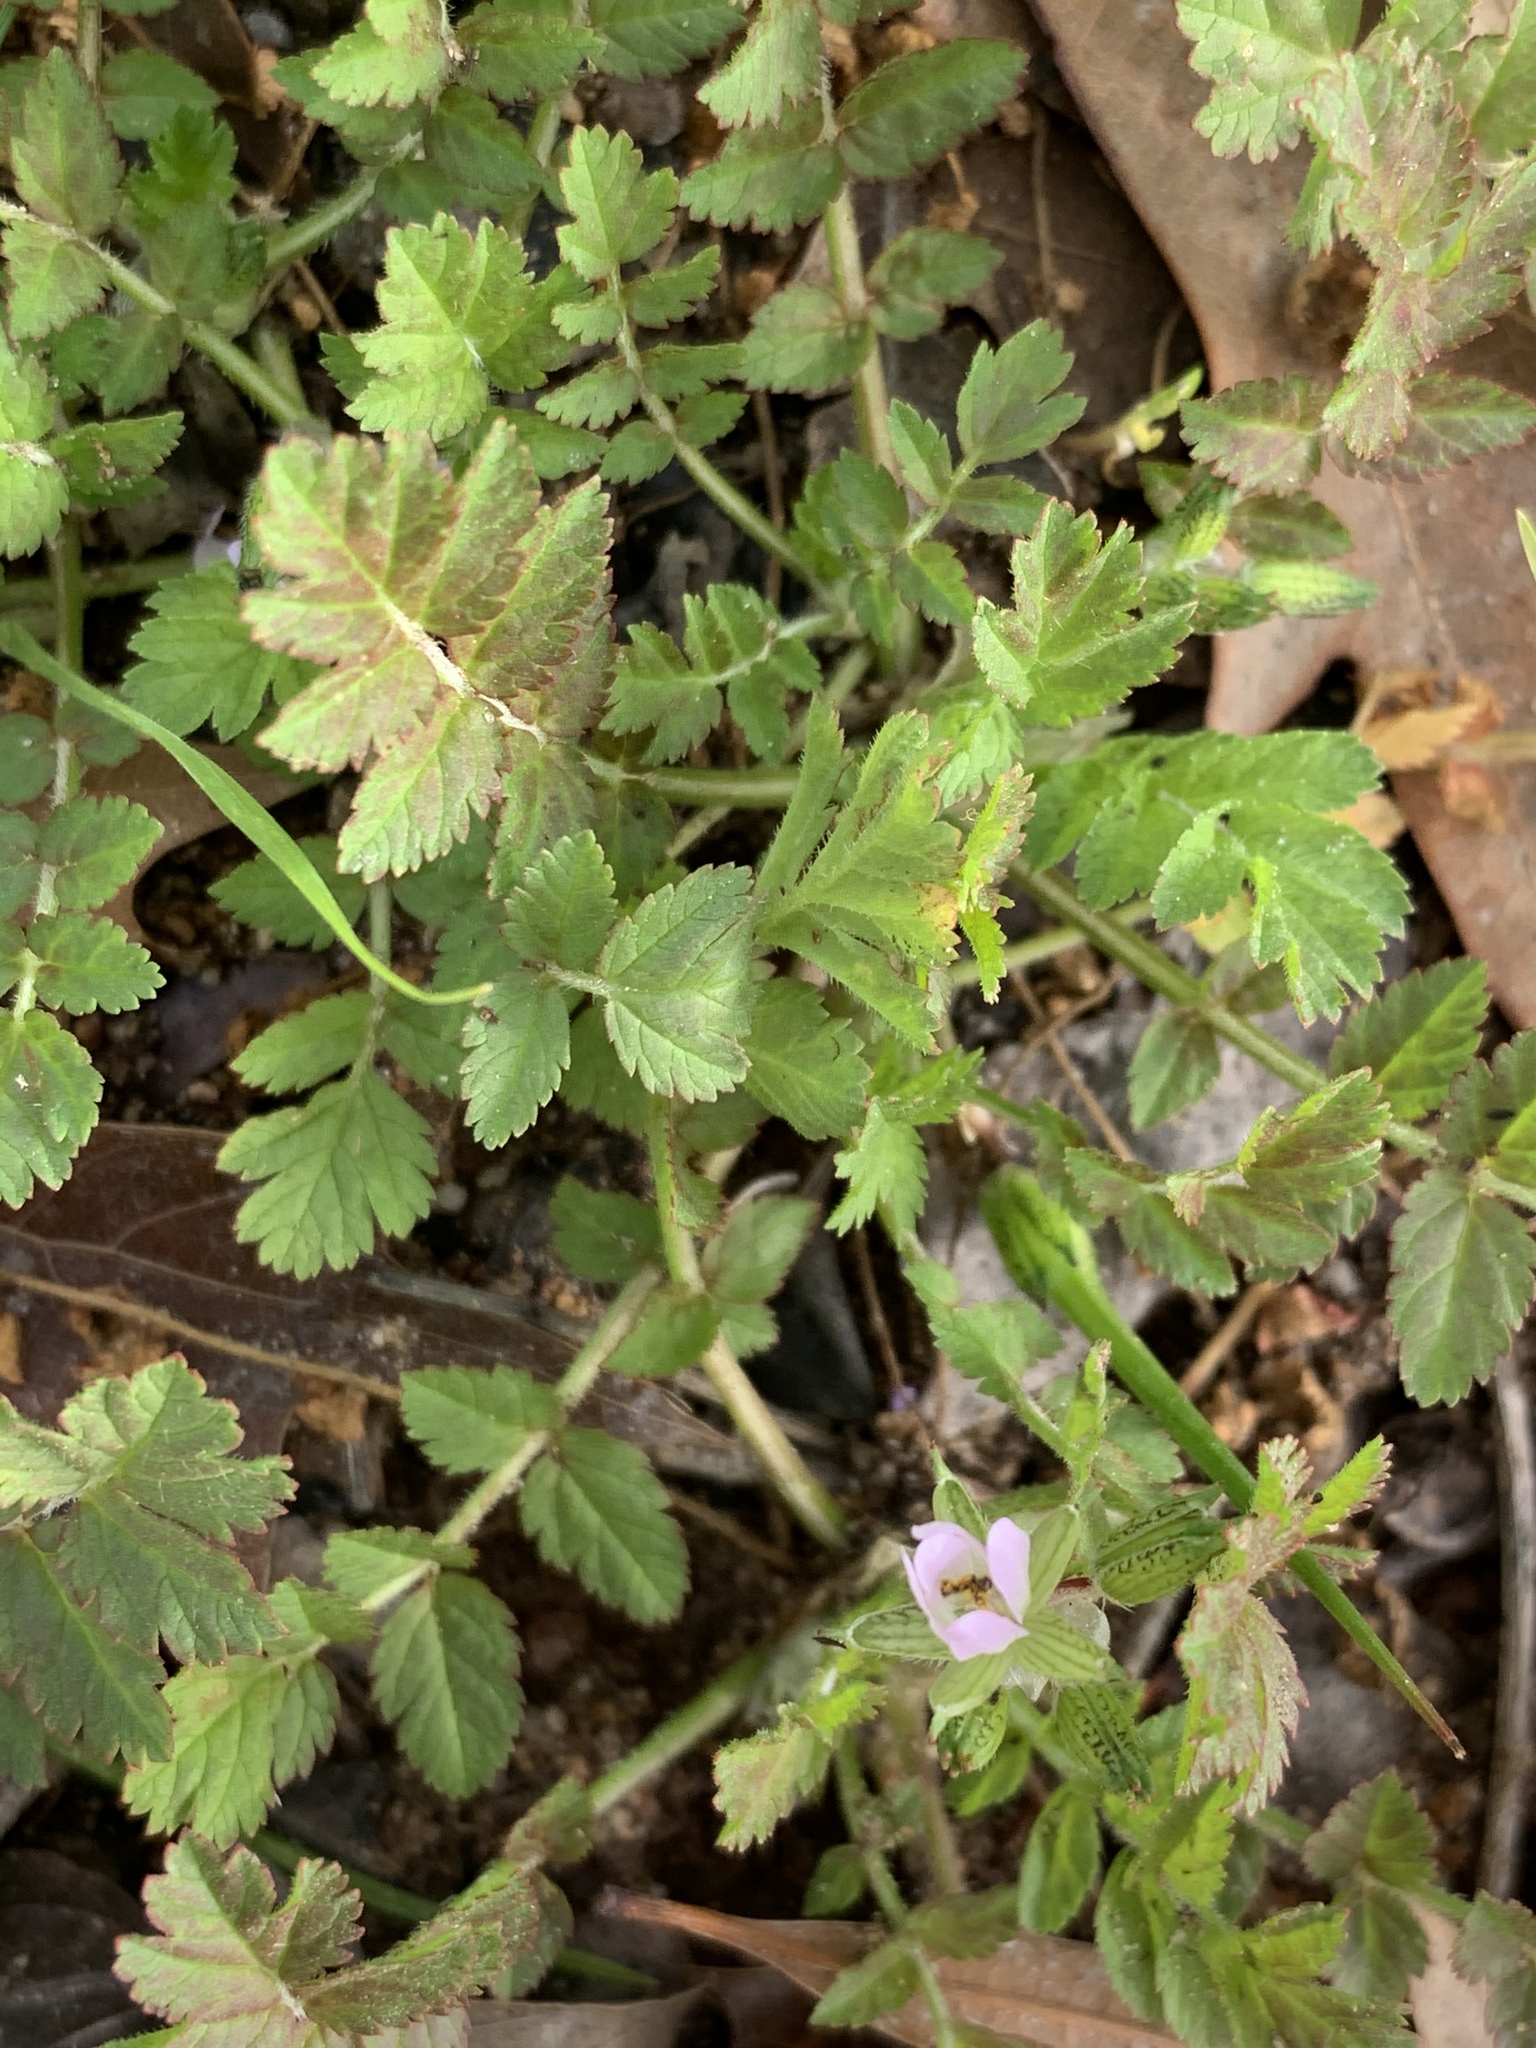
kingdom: Plantae
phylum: Tracheophyta
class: Magnoliopsida
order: Geraniales
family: Geraniaceae
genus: Erodium
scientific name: Erodium moschatum
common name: Musk stork's-bill
